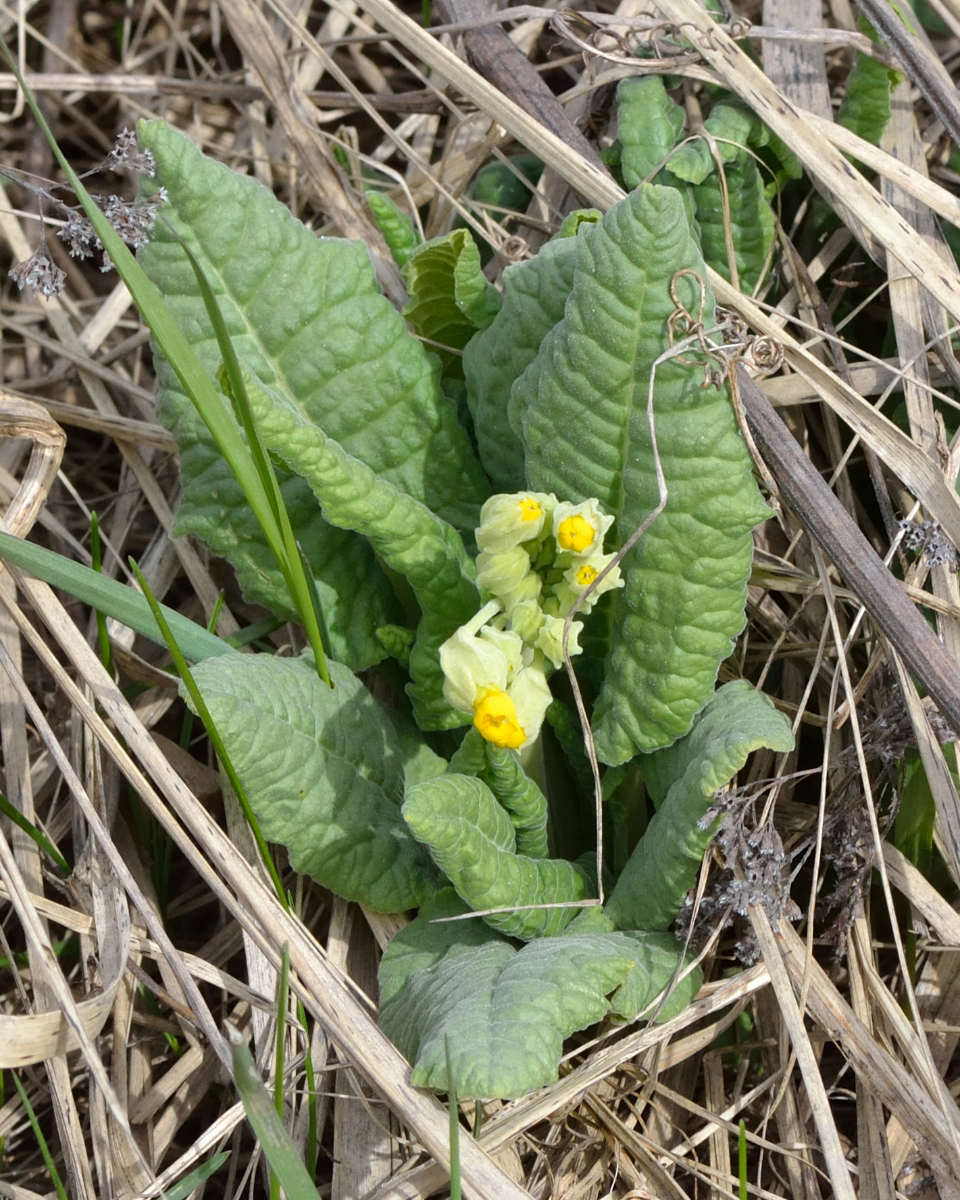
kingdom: Plantae
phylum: Tracheophyta
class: Magnoliopsida
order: Ericales
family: Primulaceae
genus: Primula
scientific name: Primula veris
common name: Cowslip
